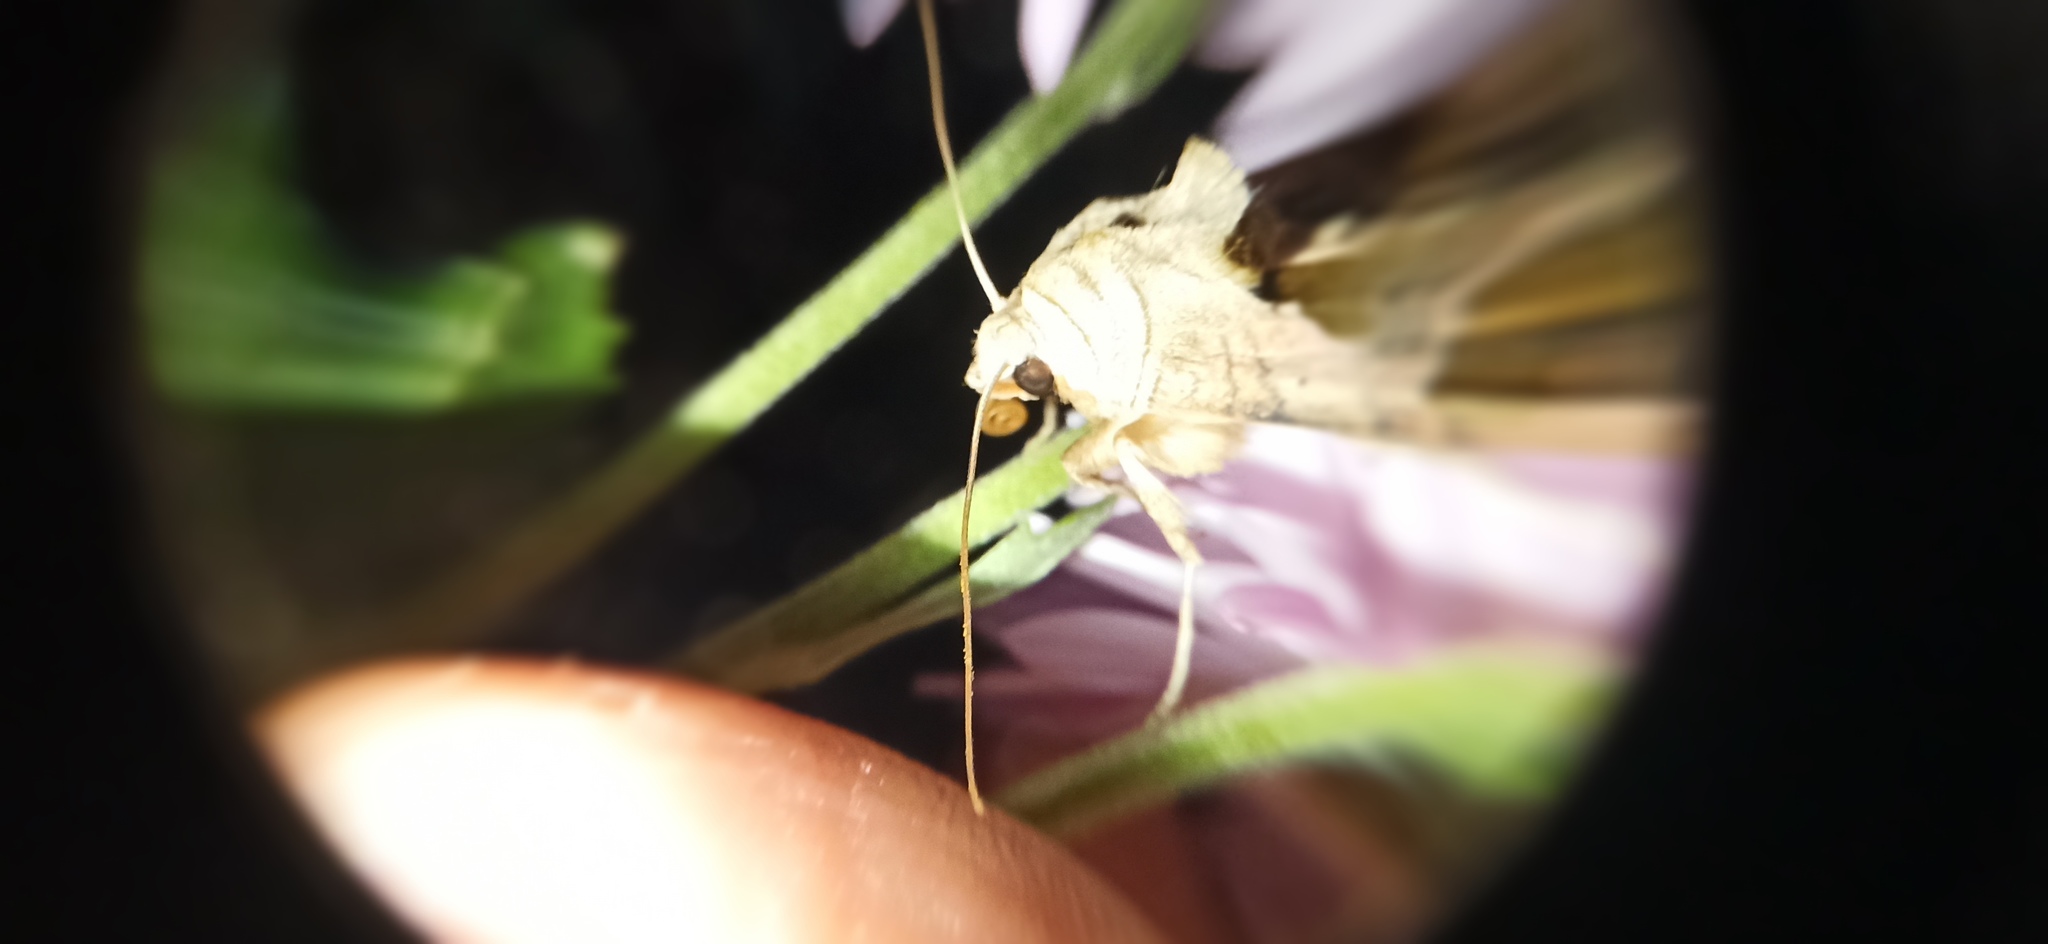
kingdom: Animalia
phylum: Arthropoda
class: Insecta
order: Lepidoptera
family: Noctuidae
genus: Phlogophora
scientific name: Phlogophora meticulosa
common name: Angle shades
